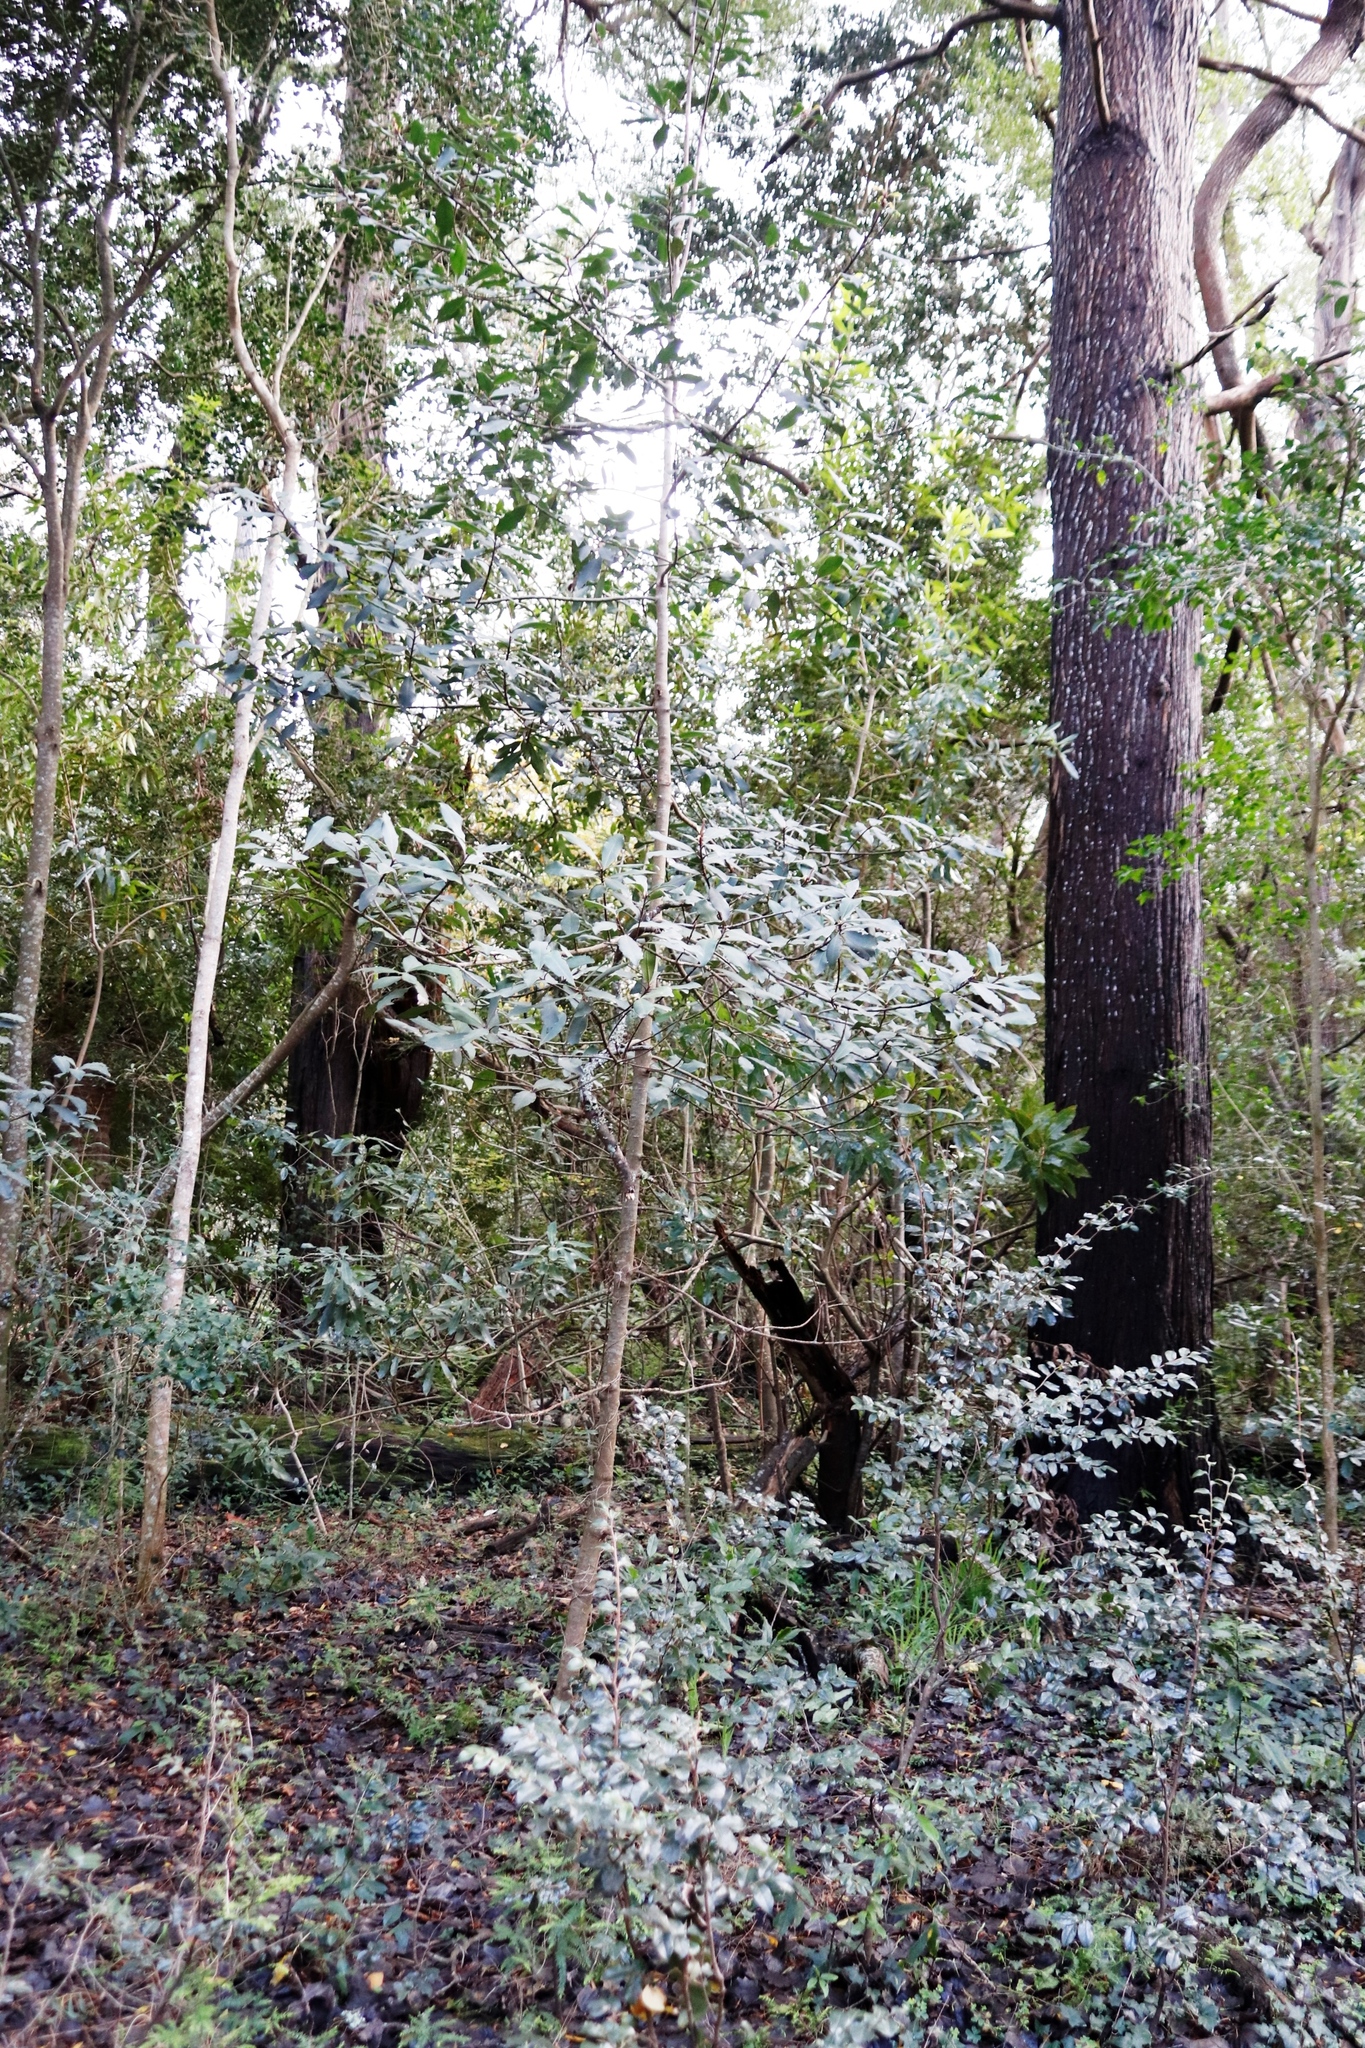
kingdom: Plantae
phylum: Tracheophyta
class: Magnoliopsida
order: Gentianales
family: Rubiaceae
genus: Canthium
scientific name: Canthium inerme
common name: Unarmed turkey-berry
